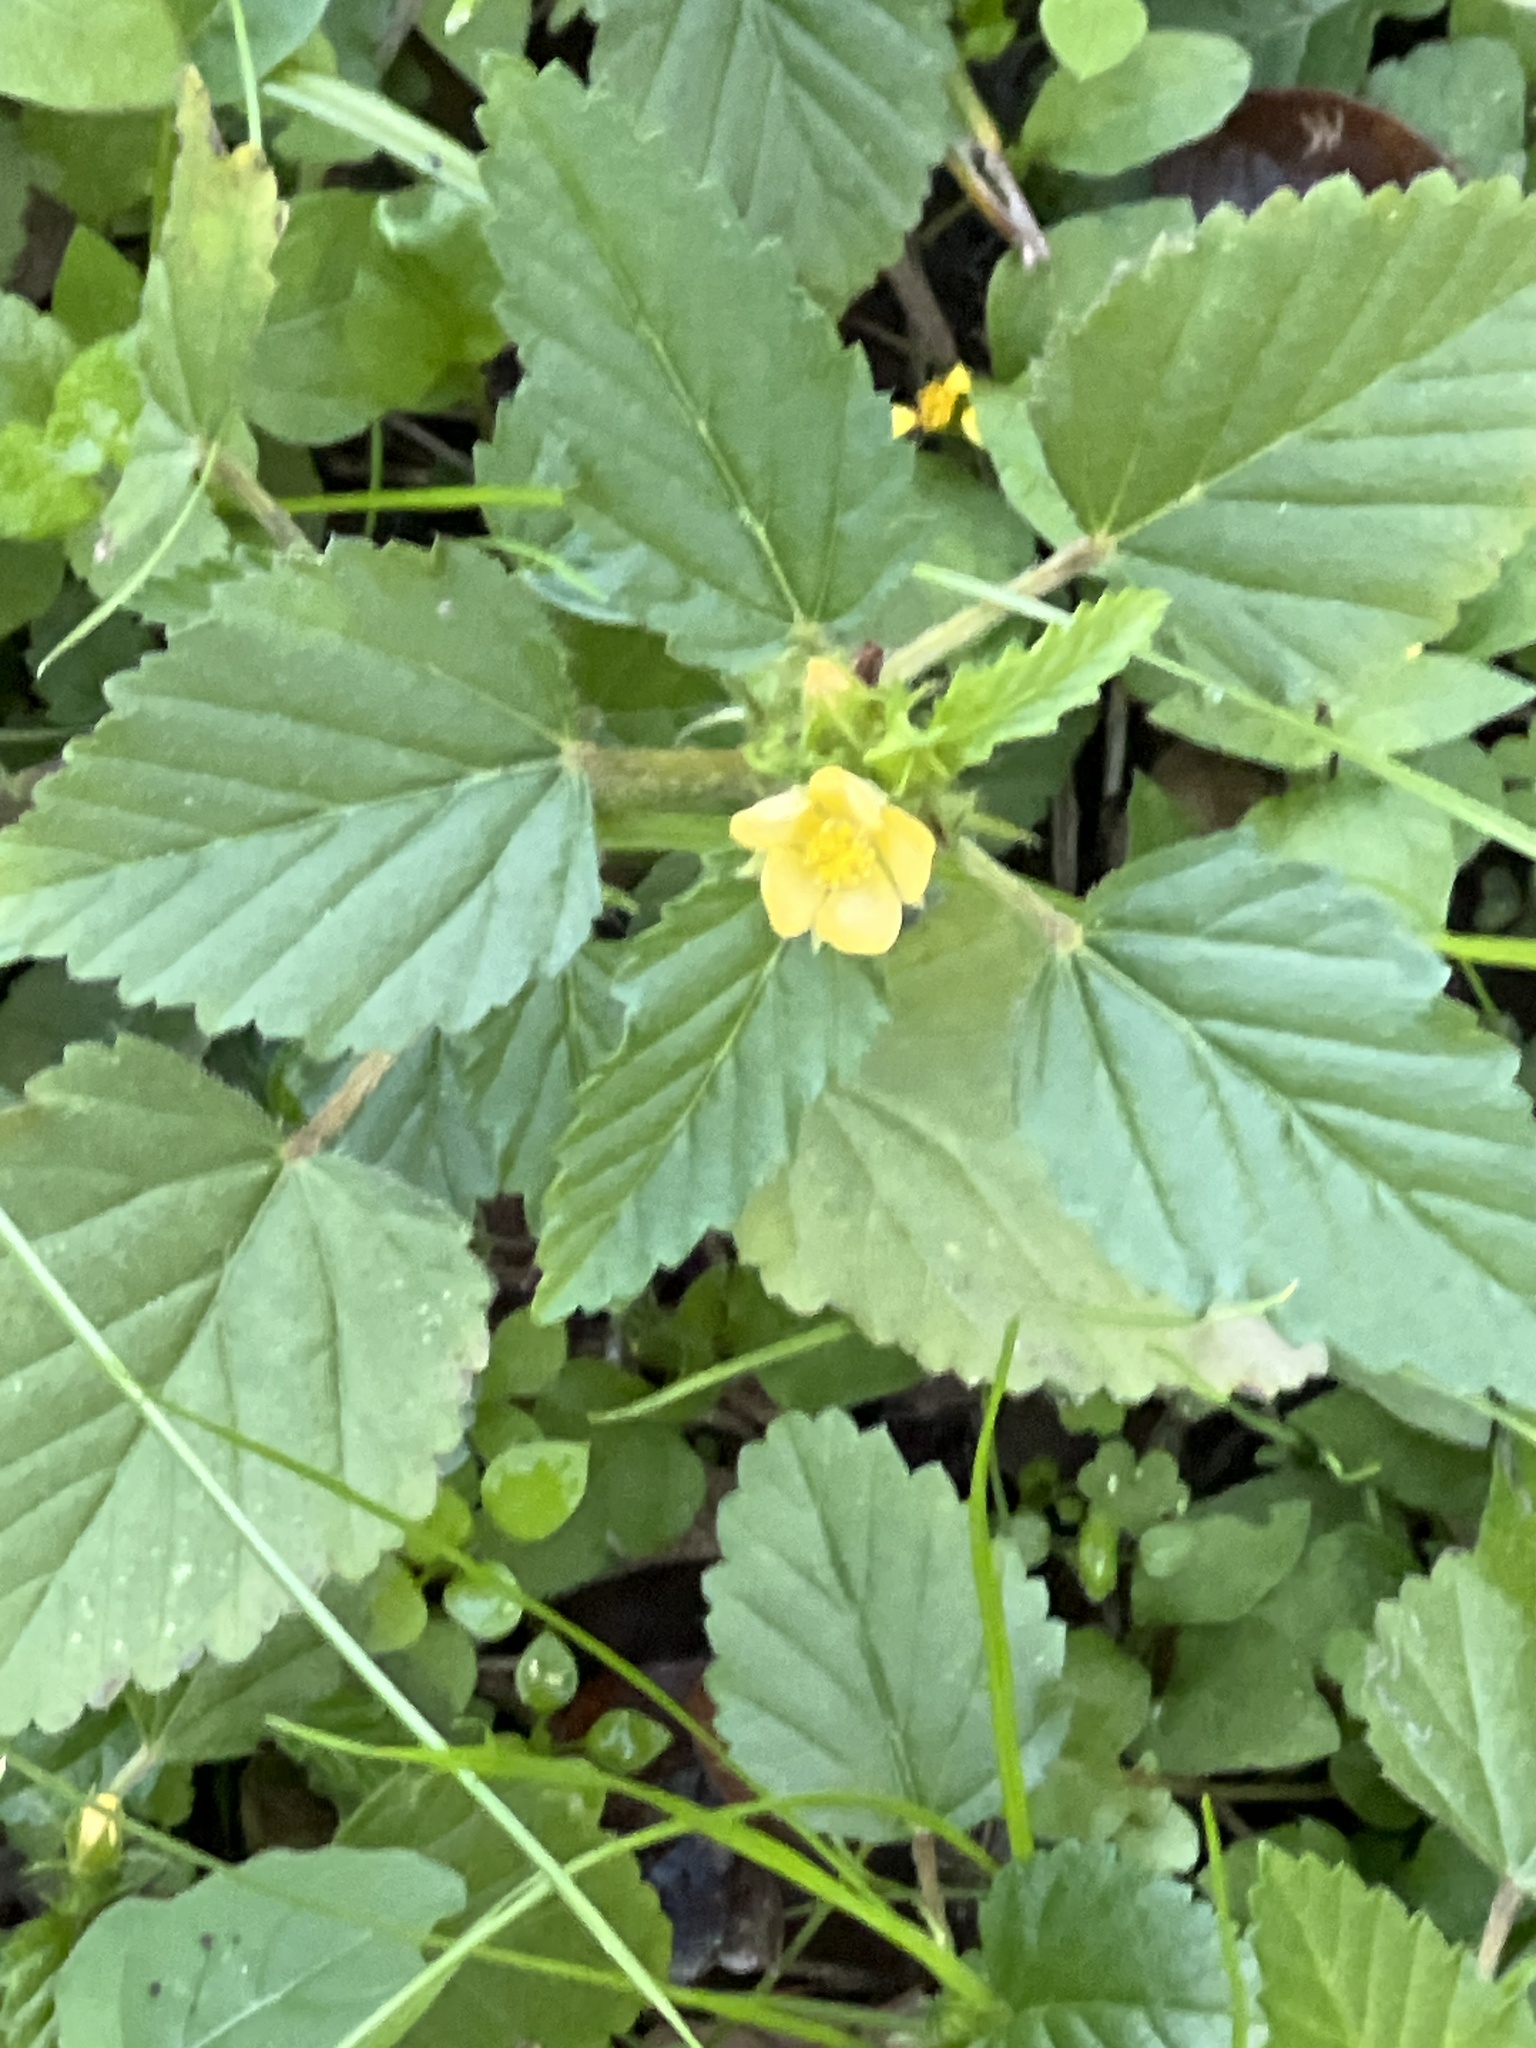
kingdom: Plantae
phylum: Tracheophyta
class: Magnoliopsida
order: Malvales
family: Malvaceae
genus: Malvastrum
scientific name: Malvastrum coromandelianum
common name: Threelobe false mallow
